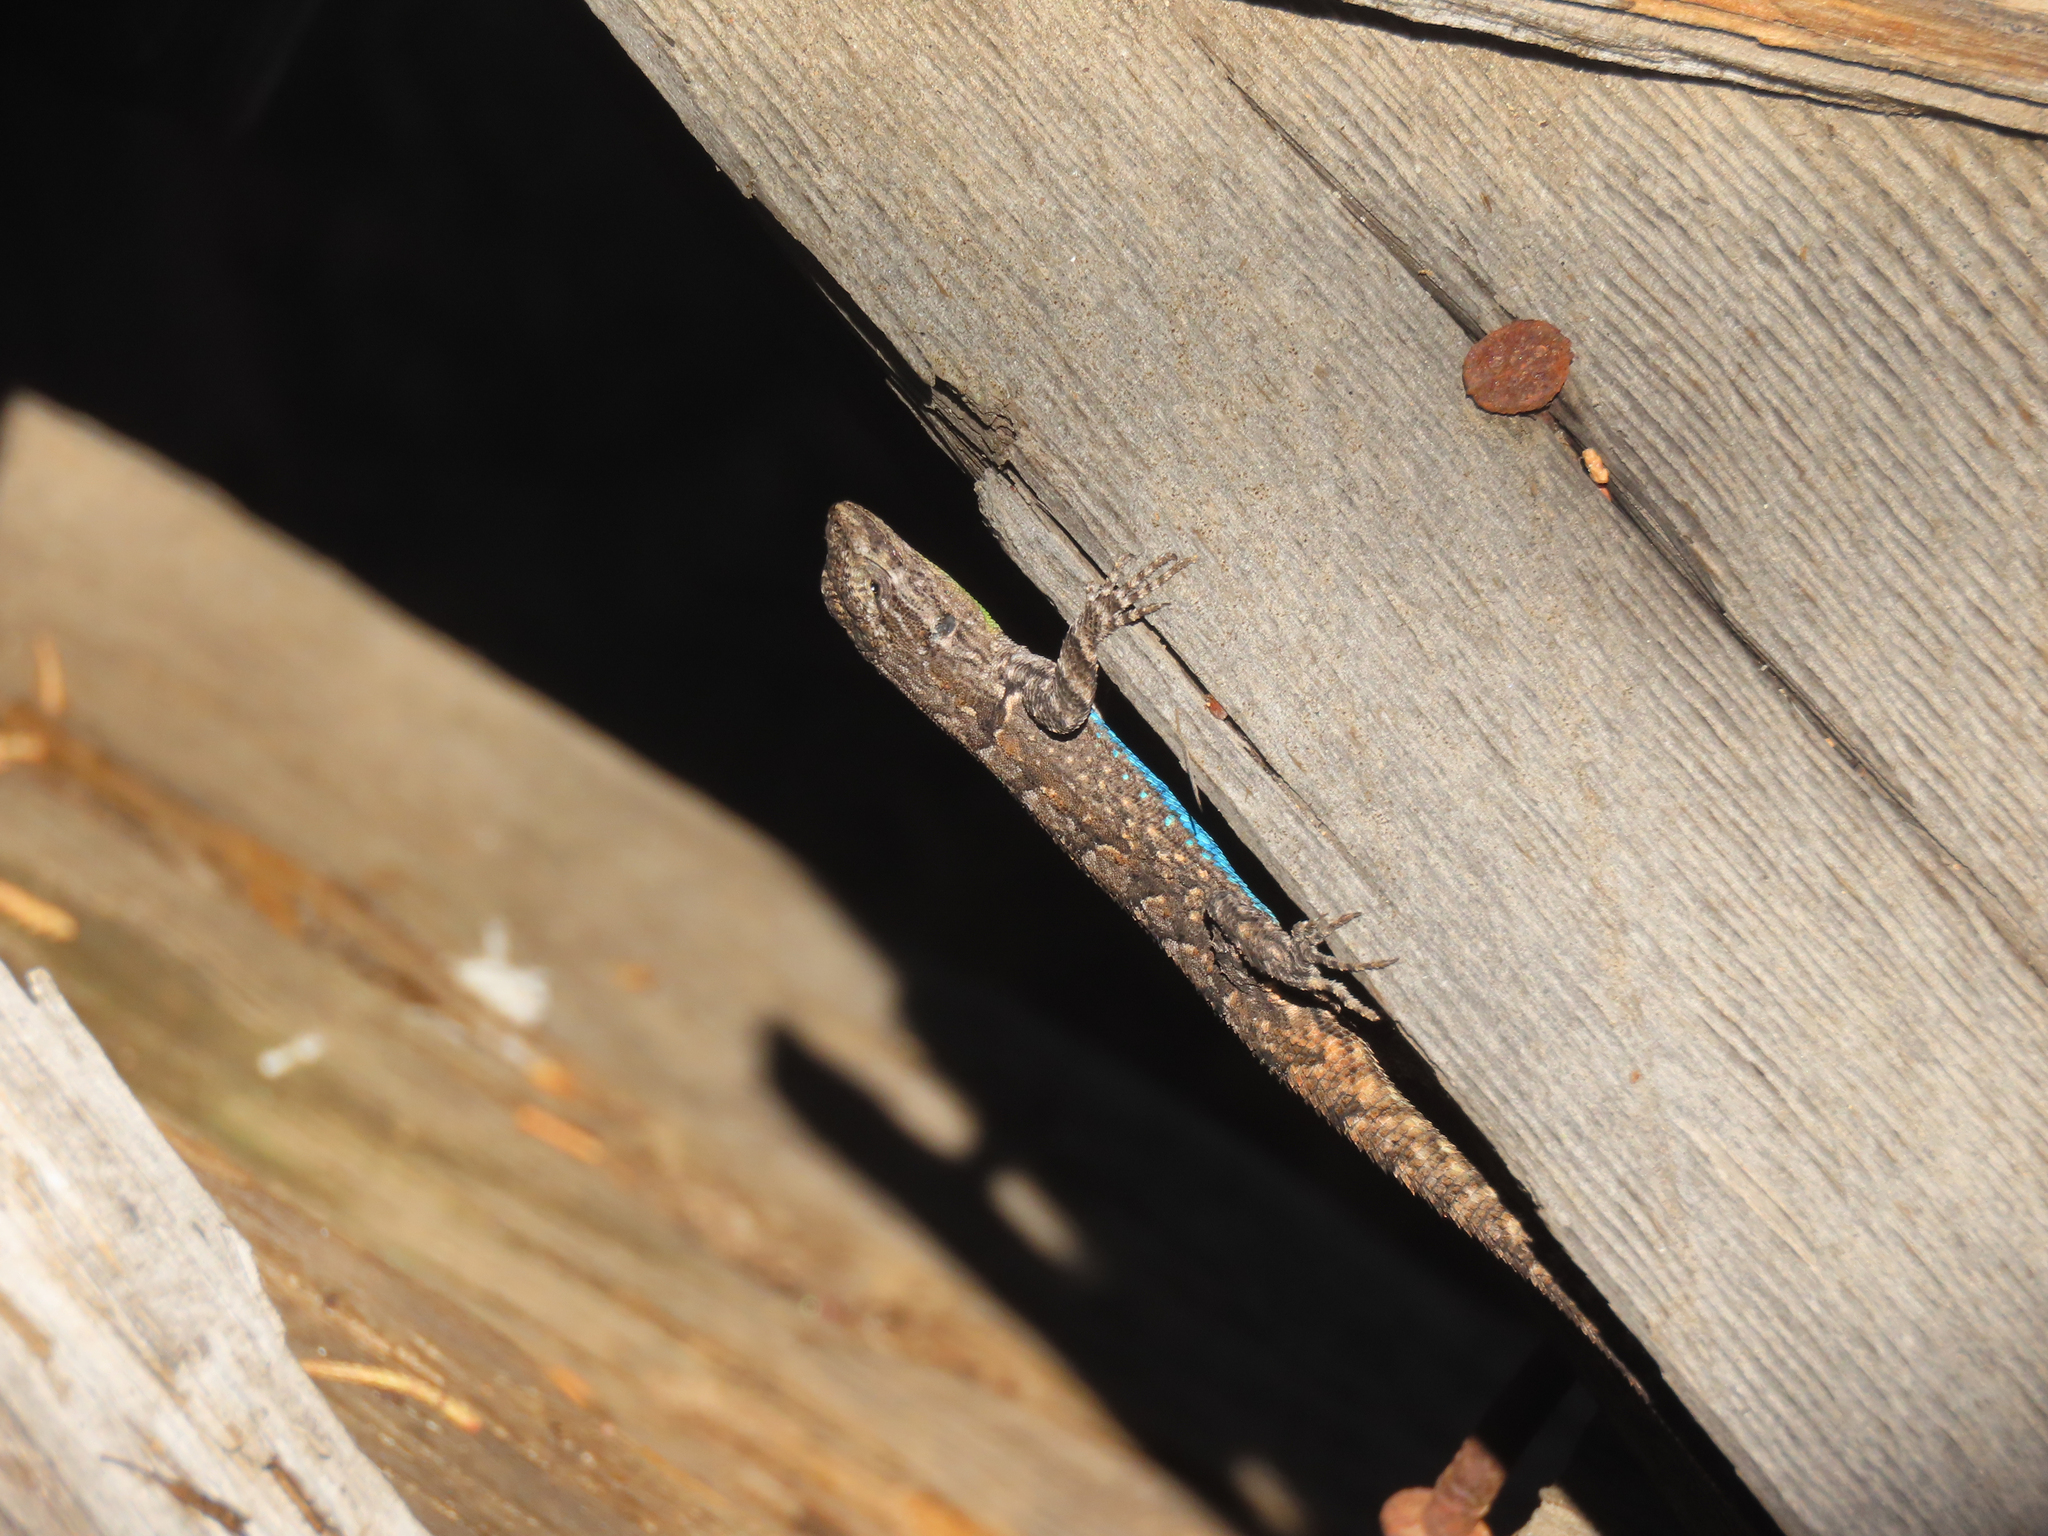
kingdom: Animalia
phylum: Chordata
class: Squamata
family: Phrynosomatidae
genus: Urosaurus
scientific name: Urosaurus ornatus
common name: Ornate tree lizard
